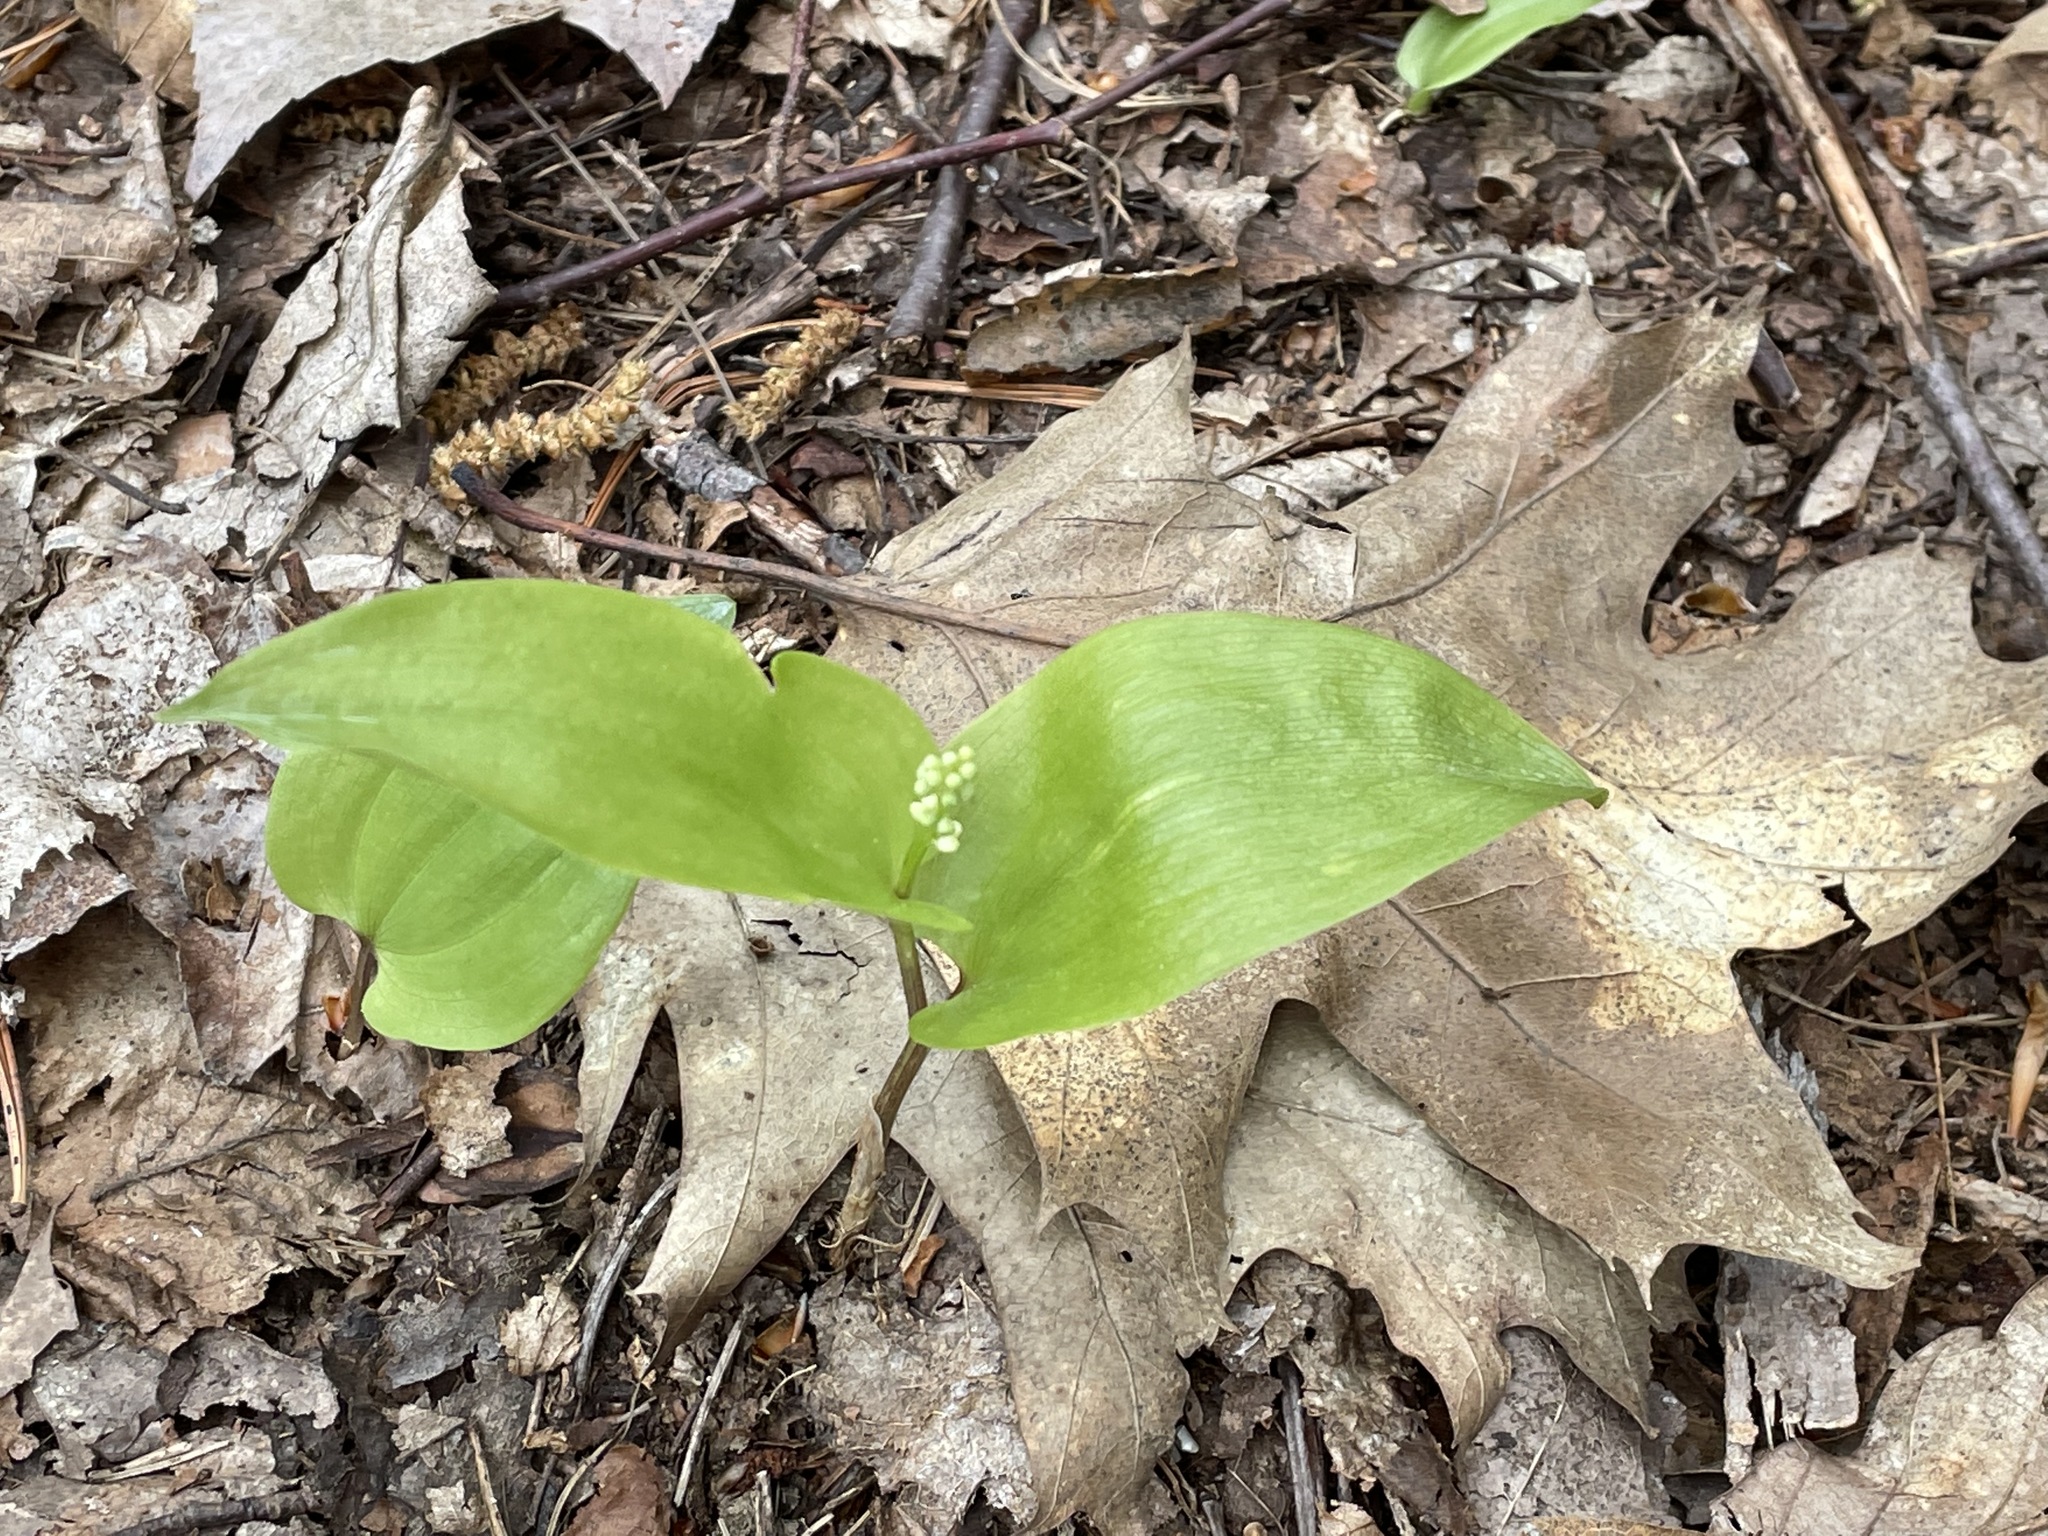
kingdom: Plantae
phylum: Tracheophyta
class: Liliopsida
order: Asparagales
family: Asparagaceae
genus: Maianthemum
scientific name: Maianthemum canadense
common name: False lily-of-the-valley
